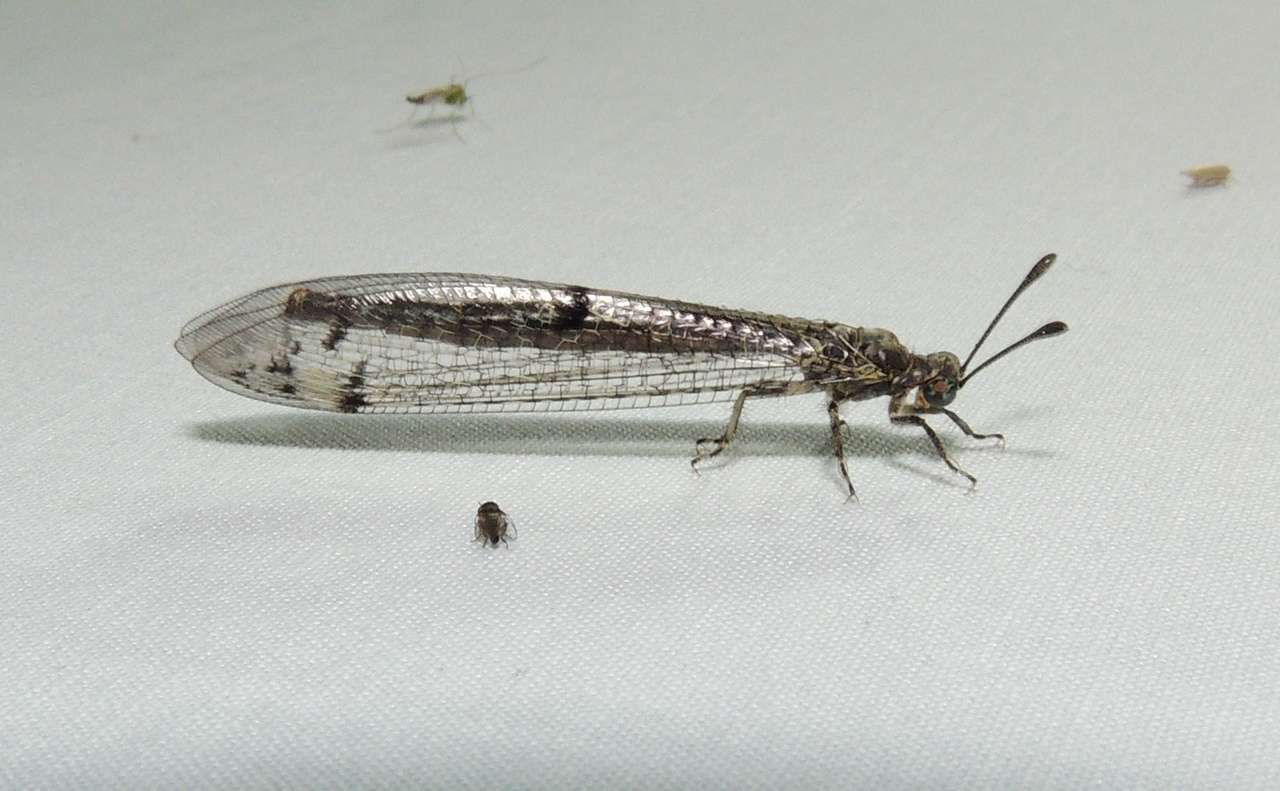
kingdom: Animalia
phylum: Arthropoda
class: Insecta
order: Neuroptera
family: Myrmeleontidae
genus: Bandidus
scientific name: Bandidus breviusculus
